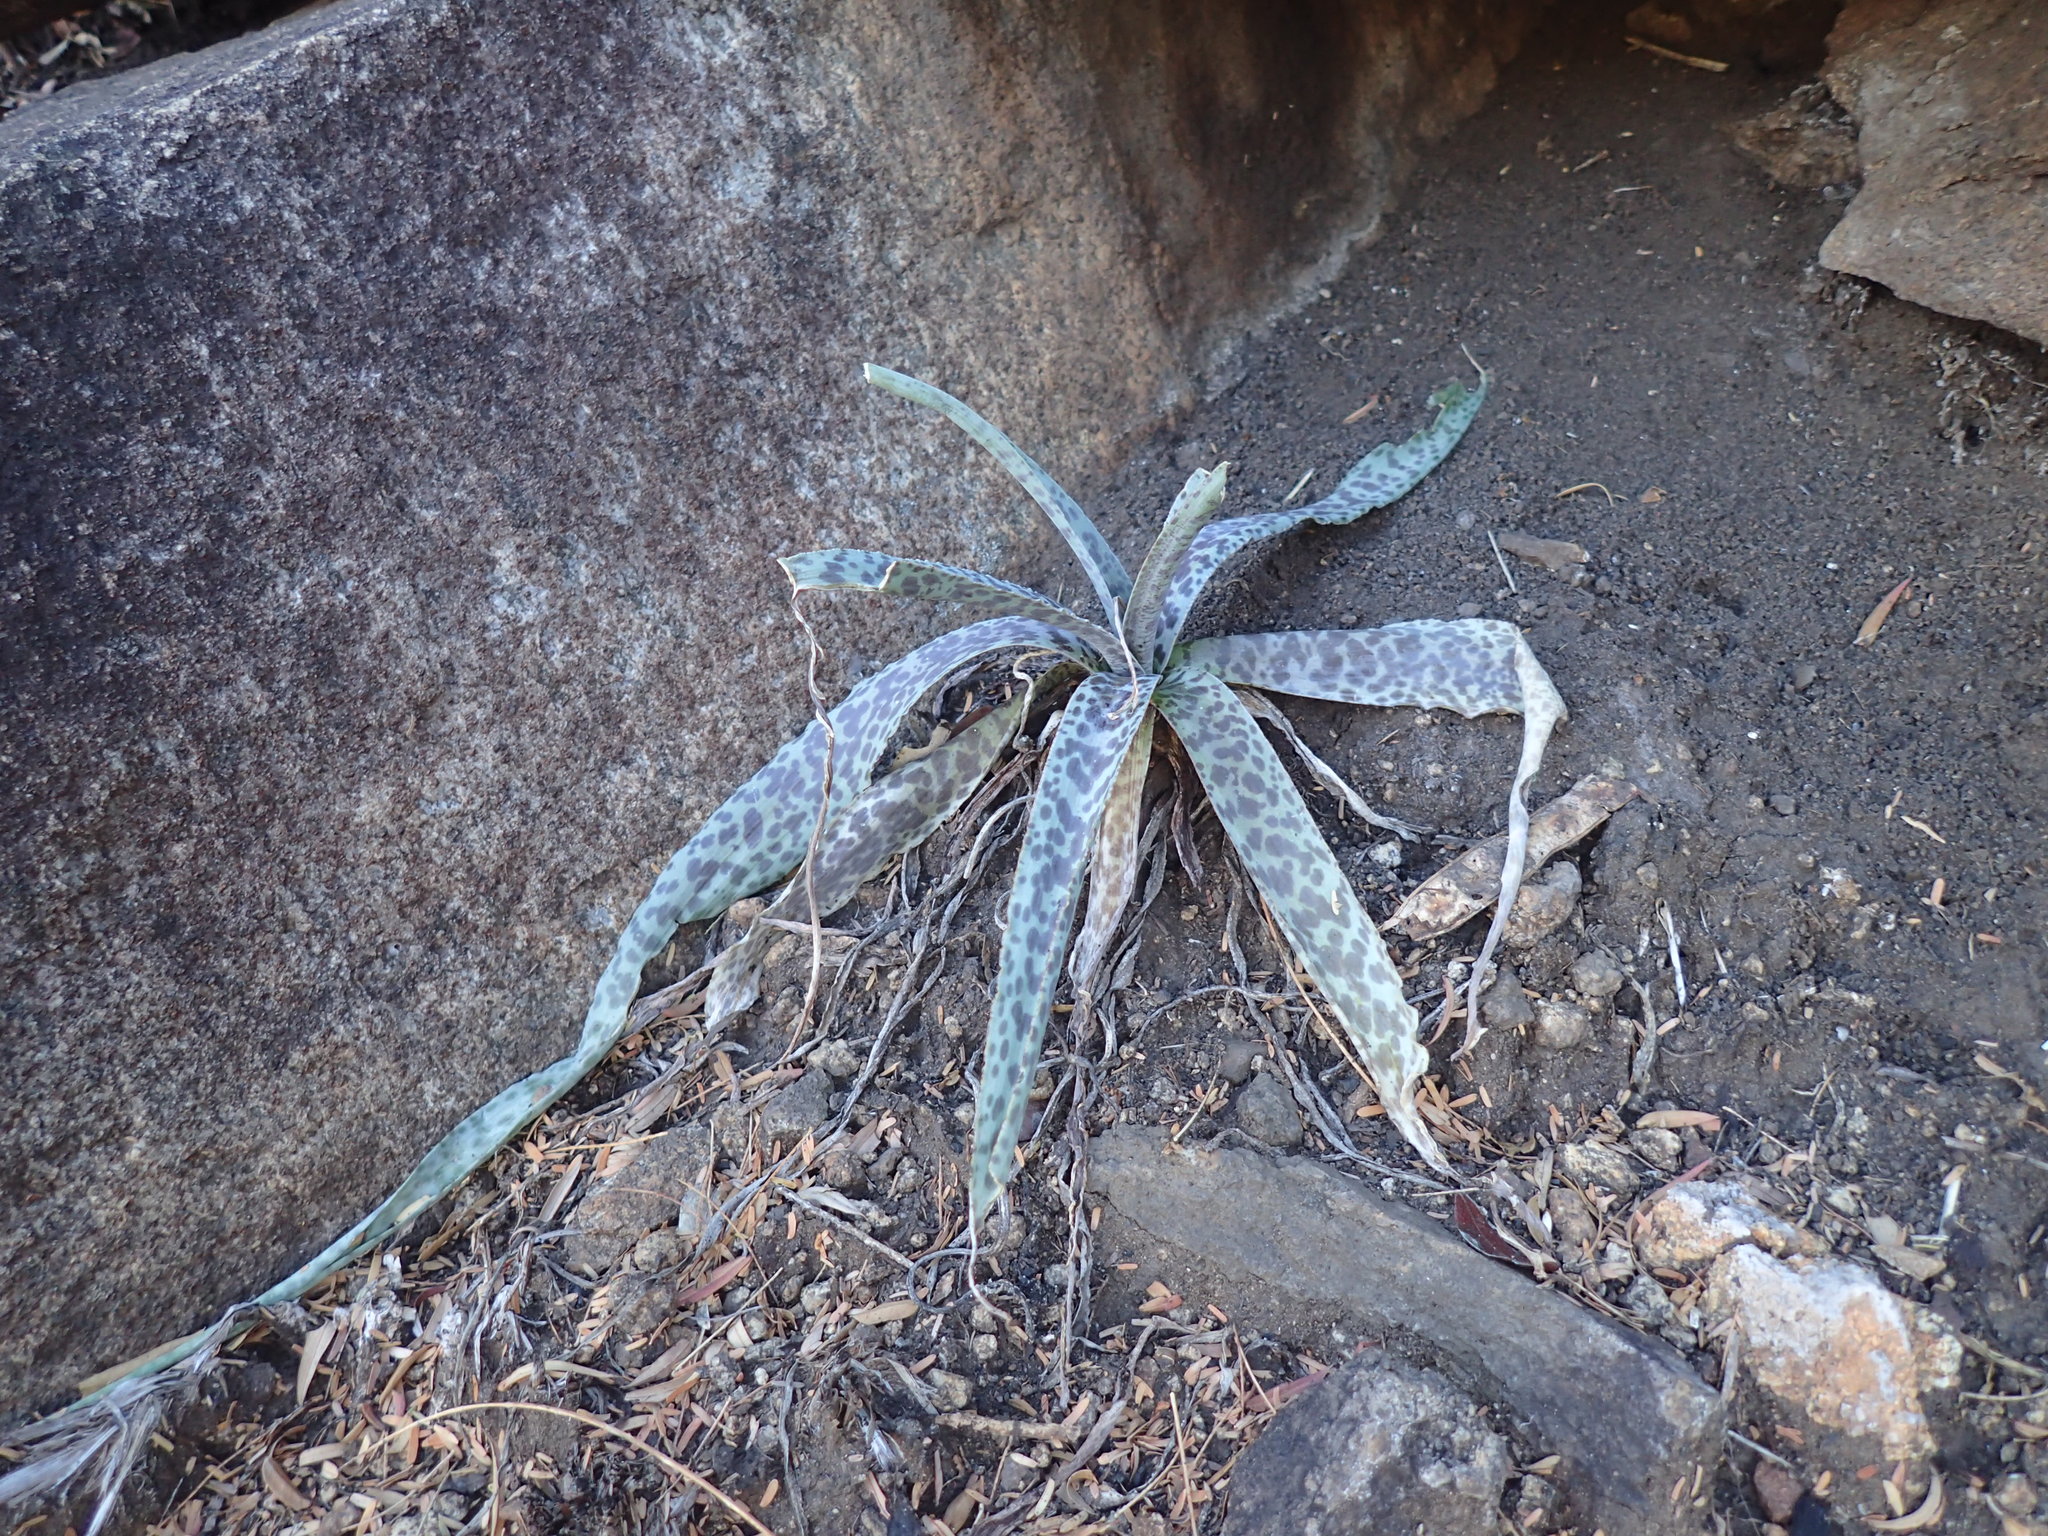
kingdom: Plantae
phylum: Tracheophyta
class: Liliopsida
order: Asparagales
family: Asparagaceae
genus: Ledebouria
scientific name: Ledebouria inquinata
